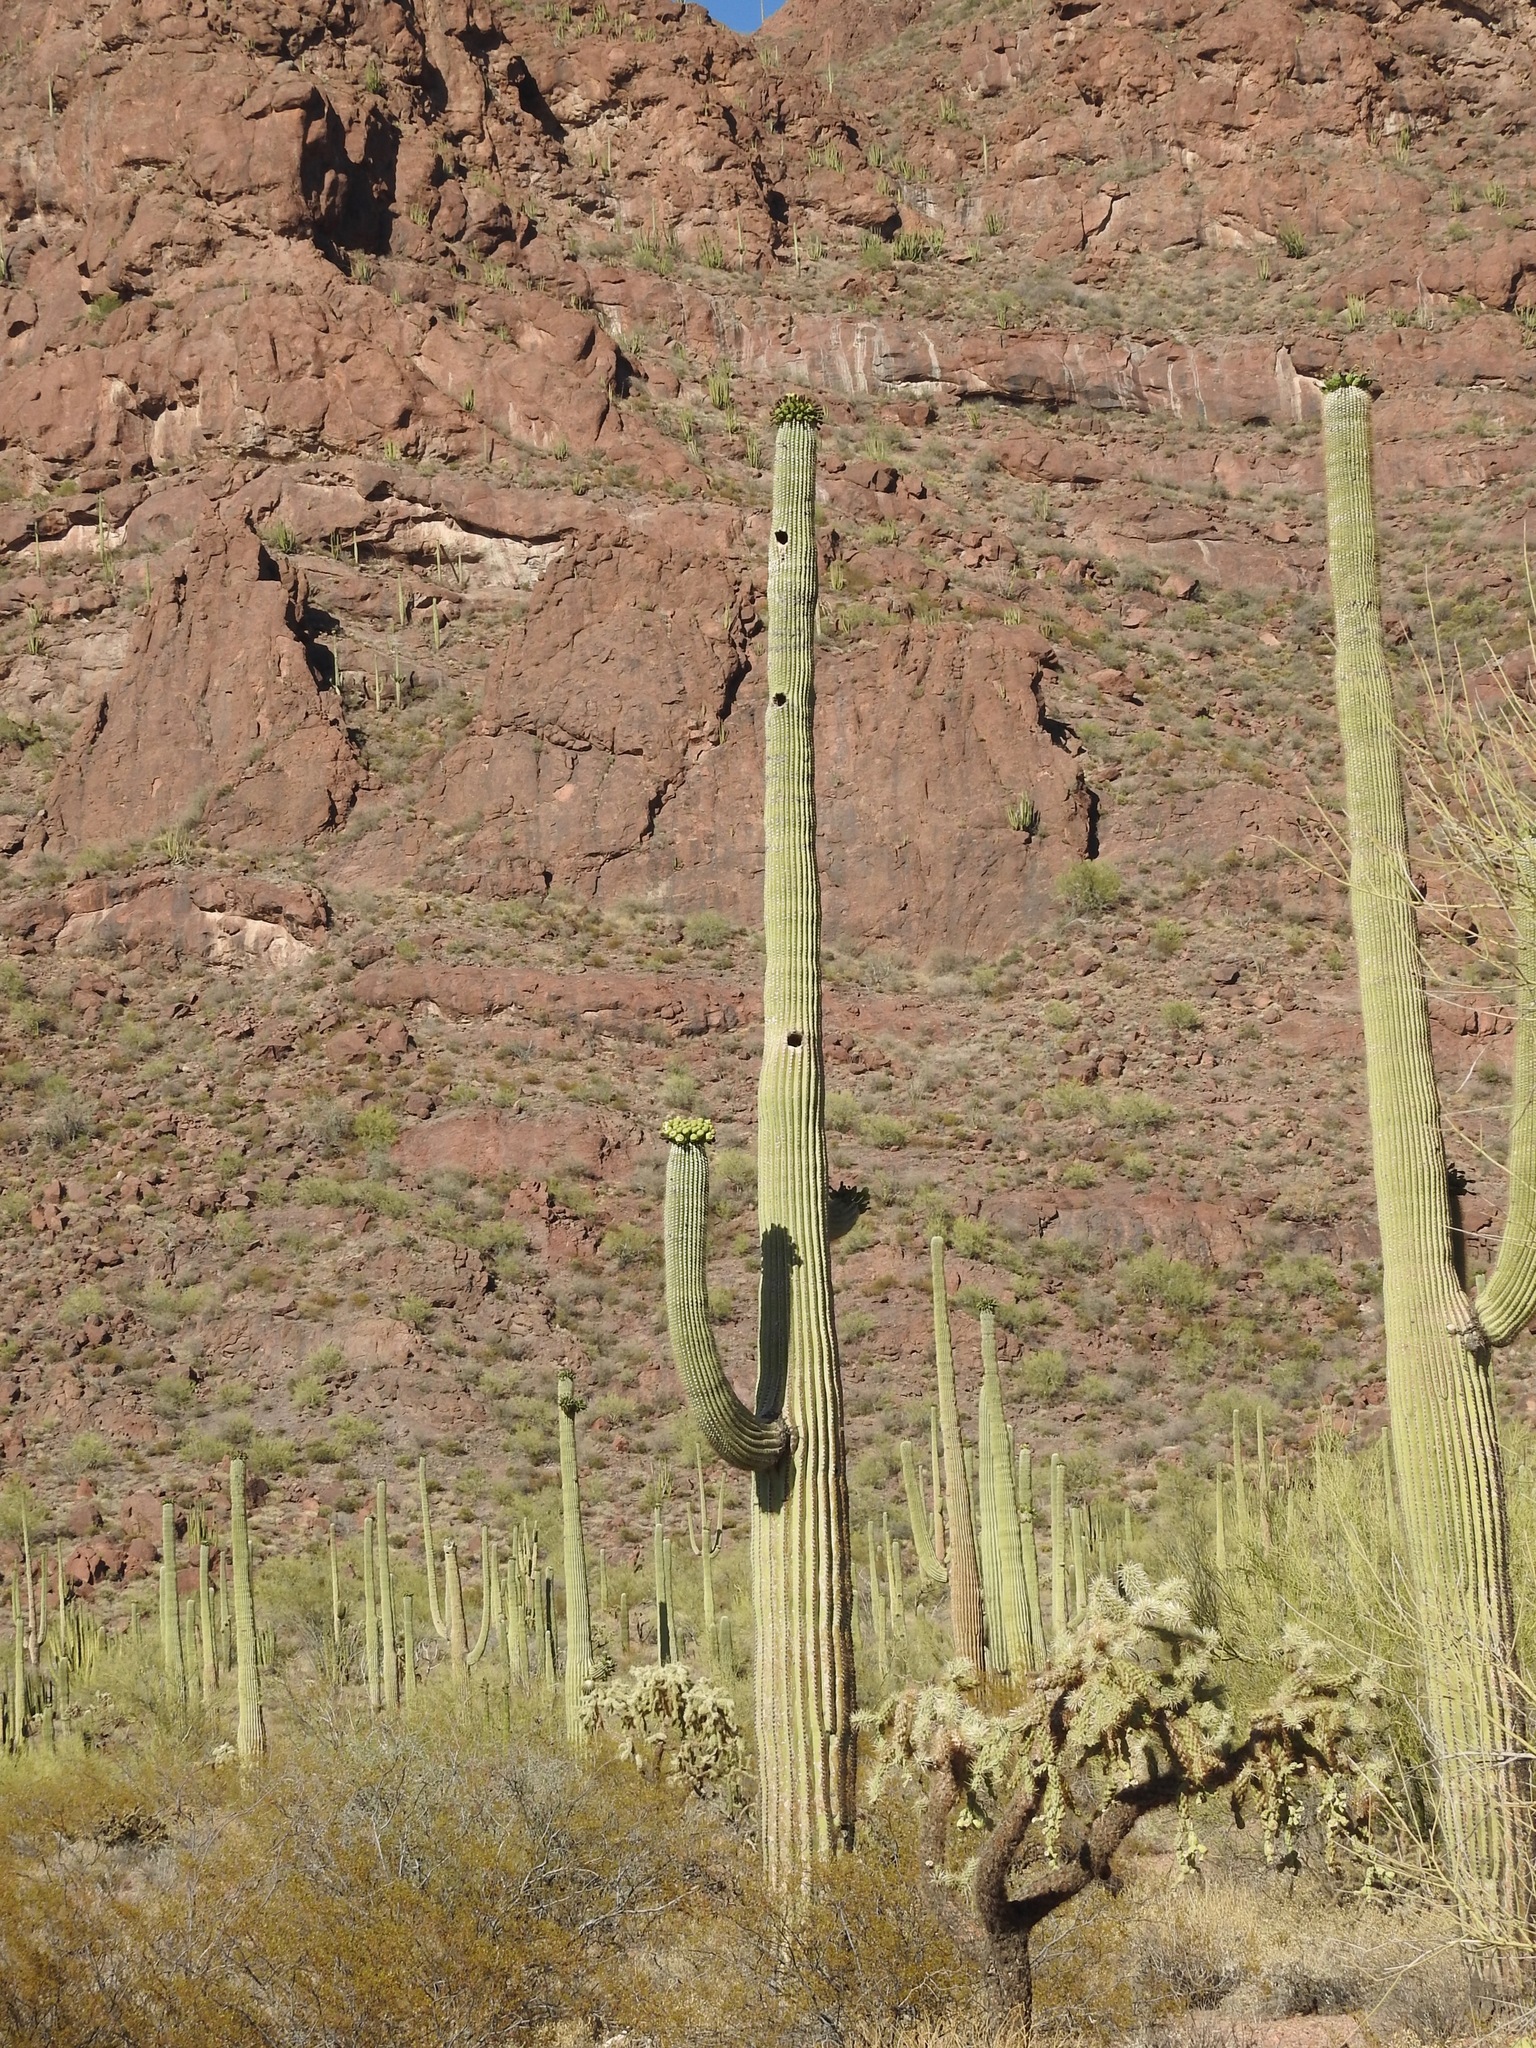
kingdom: Plantae
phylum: Tracheophyta
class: Magnoliopsida
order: Caryophyllales
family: Cactaceae
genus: Carnegiea
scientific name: Carnegiea gigantea
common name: Saguaro
